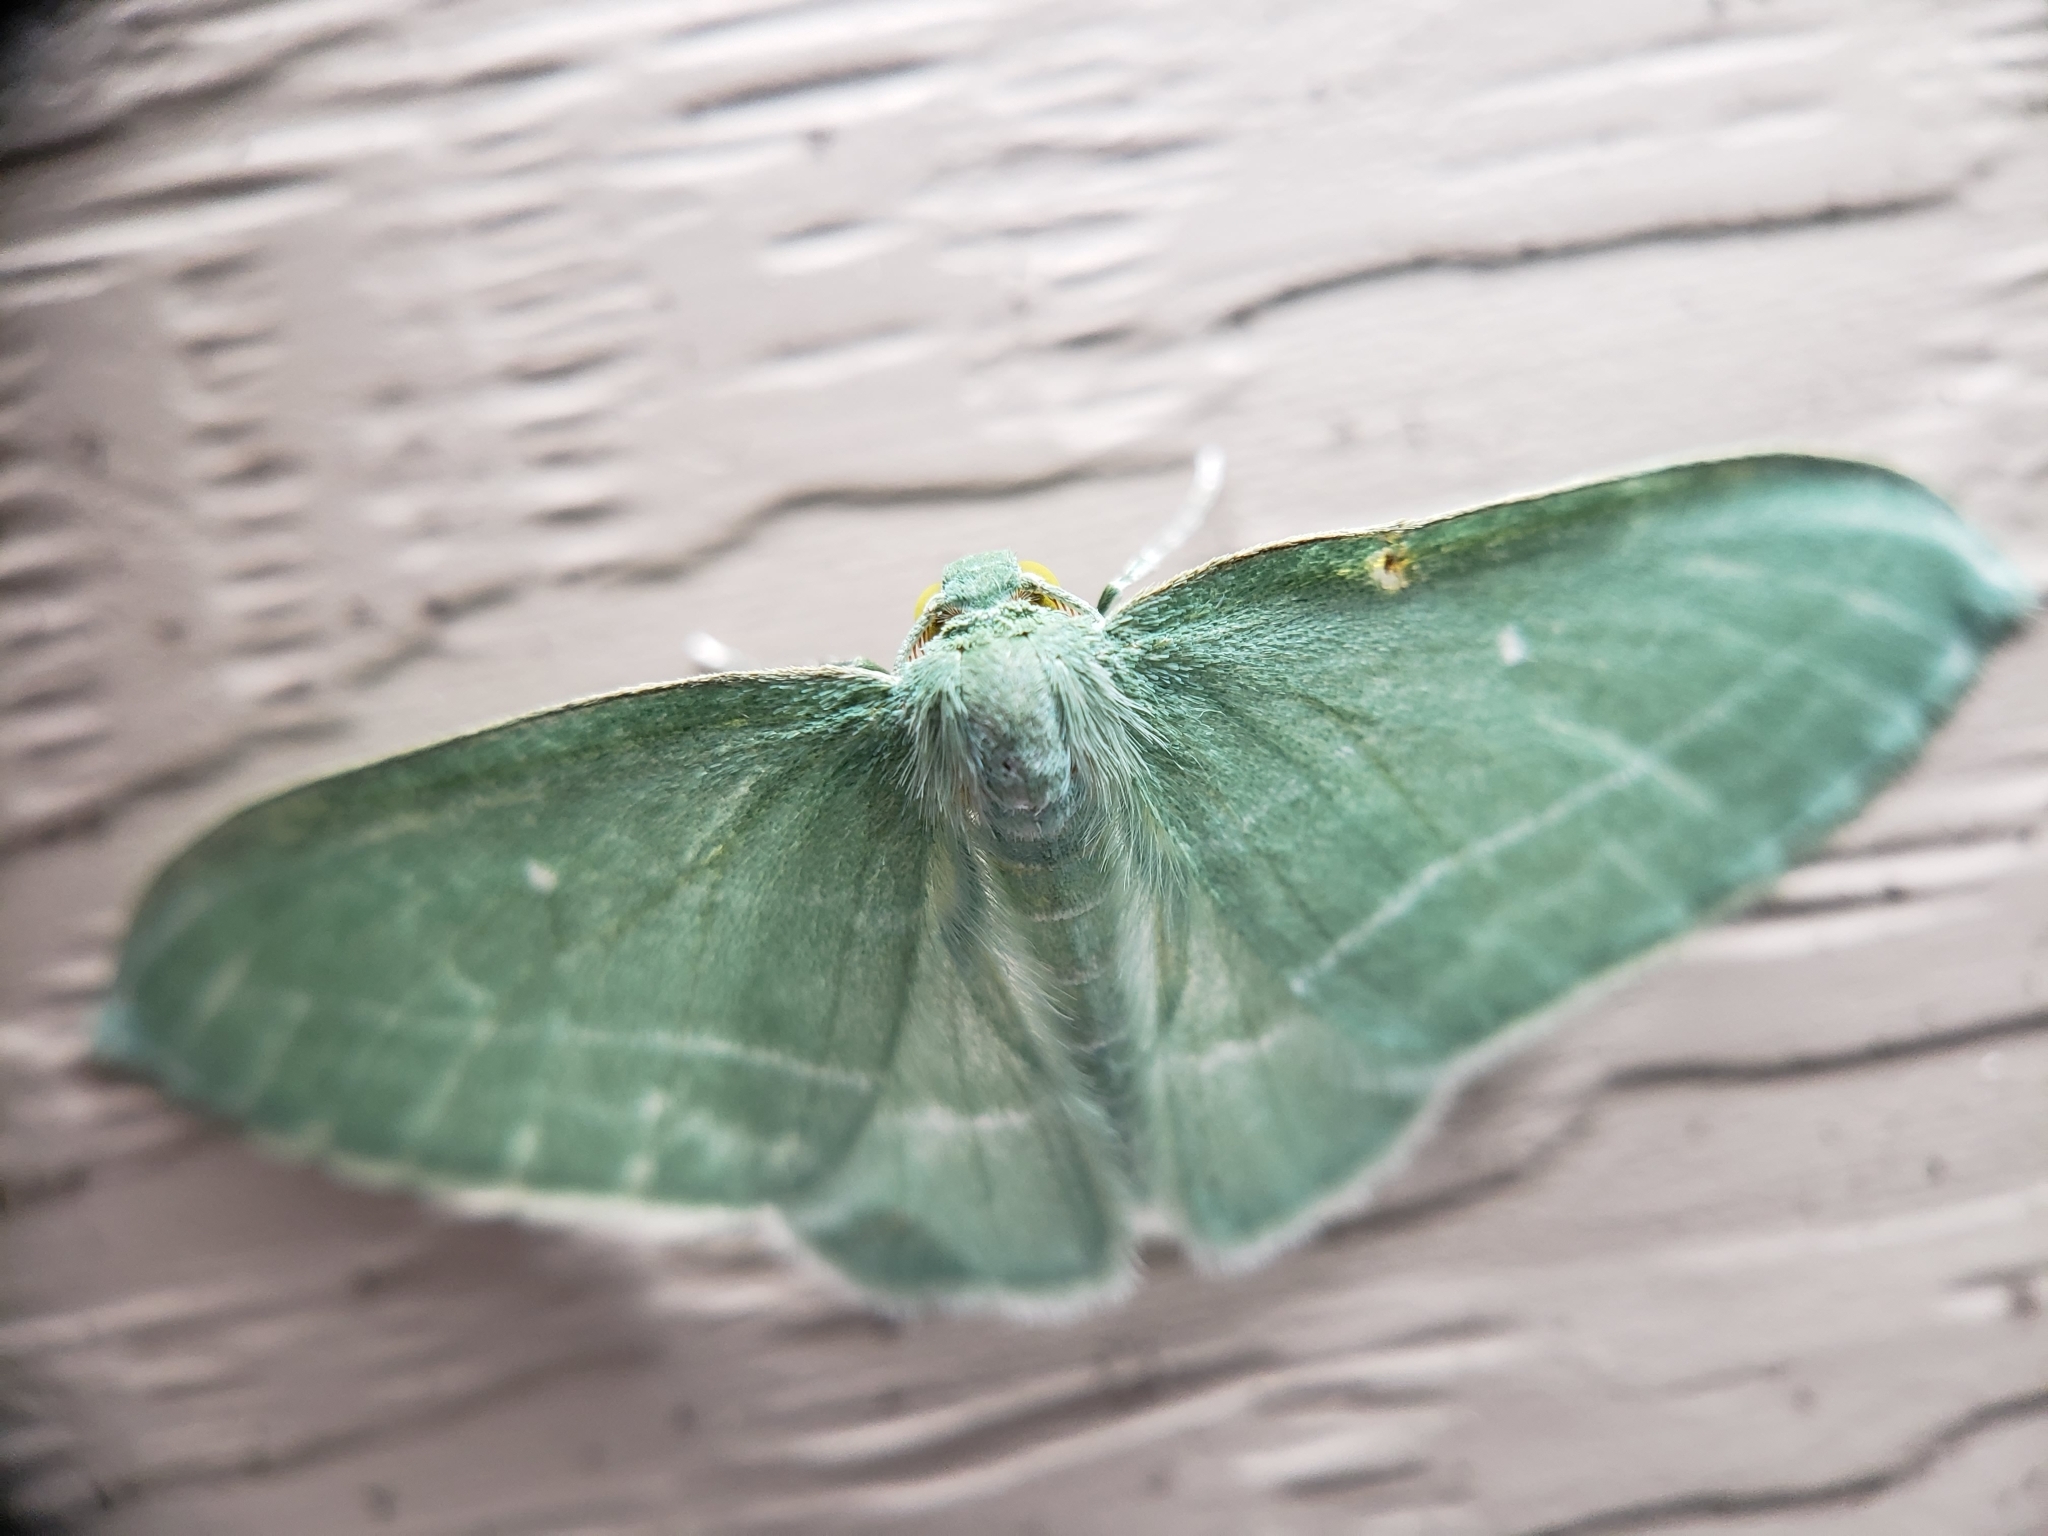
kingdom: Animalia
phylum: Arthropoda
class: Insecta
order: Lepidoptera
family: Geometridae
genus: Dyspteris
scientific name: Dyspteris abortivaria
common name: Bad-wing
